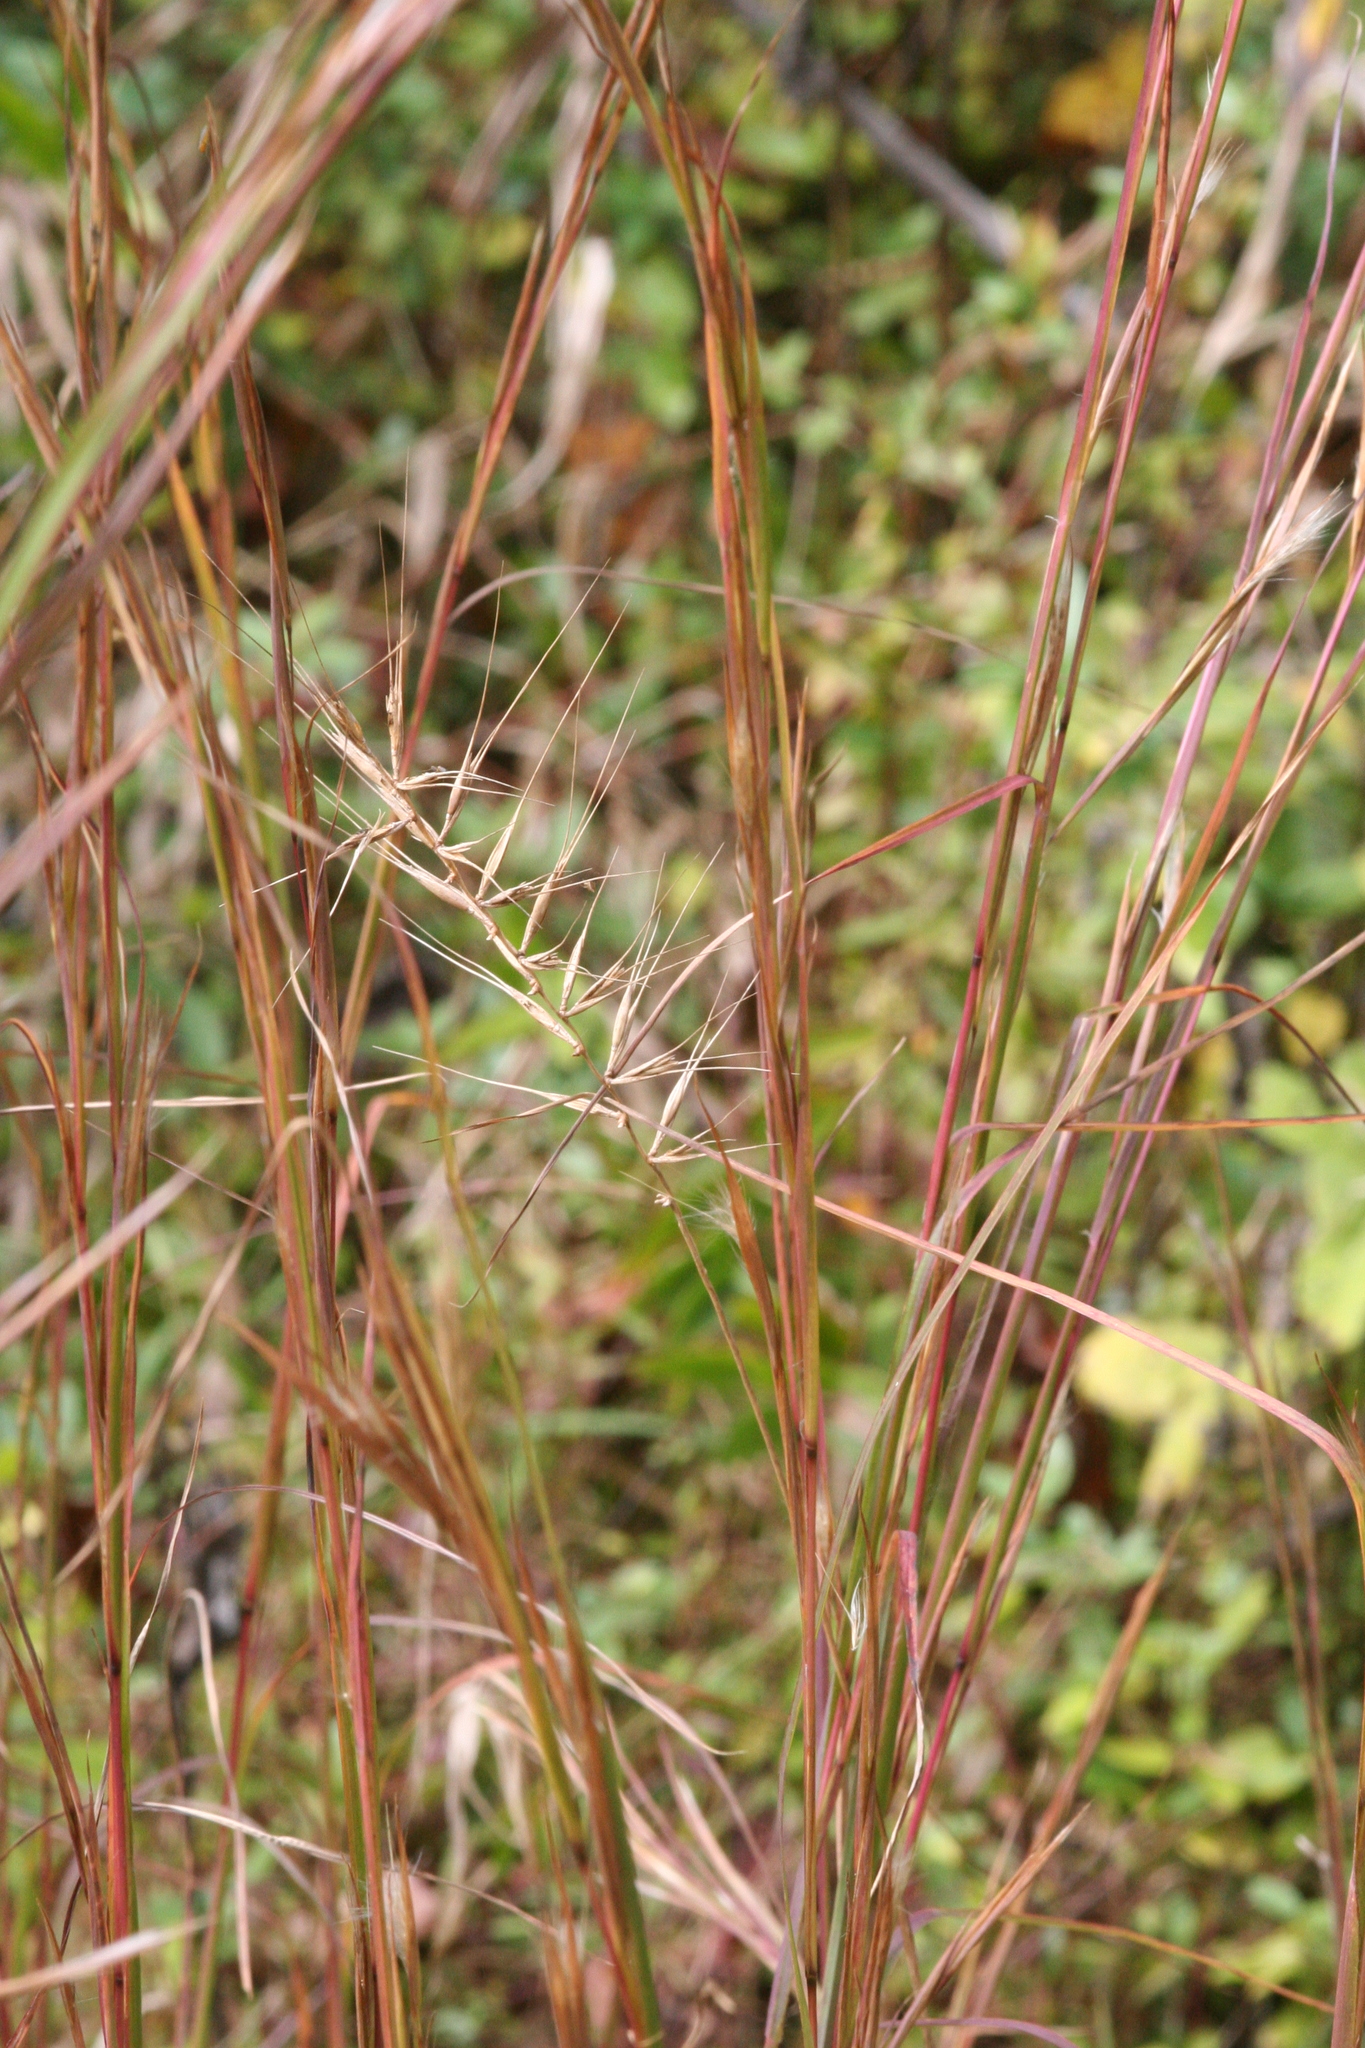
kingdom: Plantae
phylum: Tracheophyta
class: Liliopsida
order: Poales
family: Poaceae
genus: Elymus
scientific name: Elymus hystrix
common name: Bottlebrush grass
